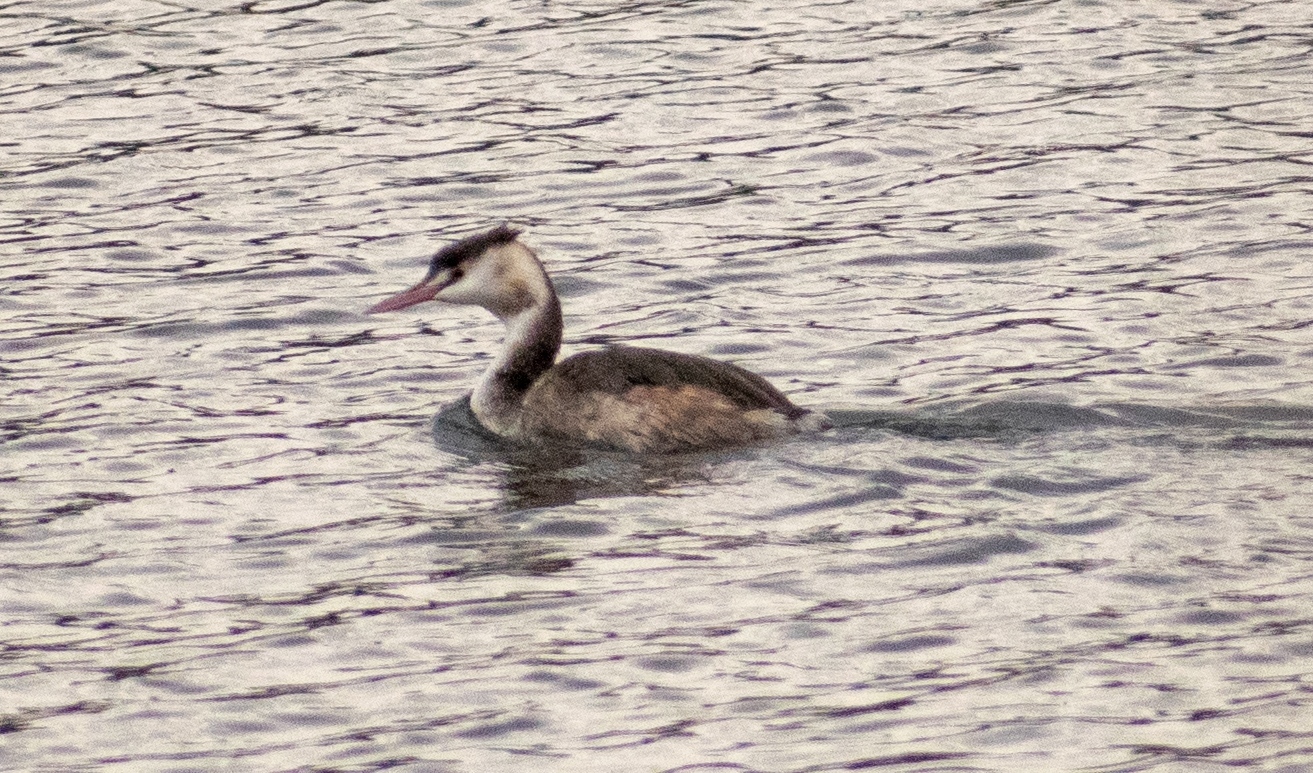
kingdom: Animalia
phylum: Chordata
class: Aves
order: Podicipediformes
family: Podicipedidae
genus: Podiceps
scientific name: Podiceps cristatus
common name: Great crested grebe
